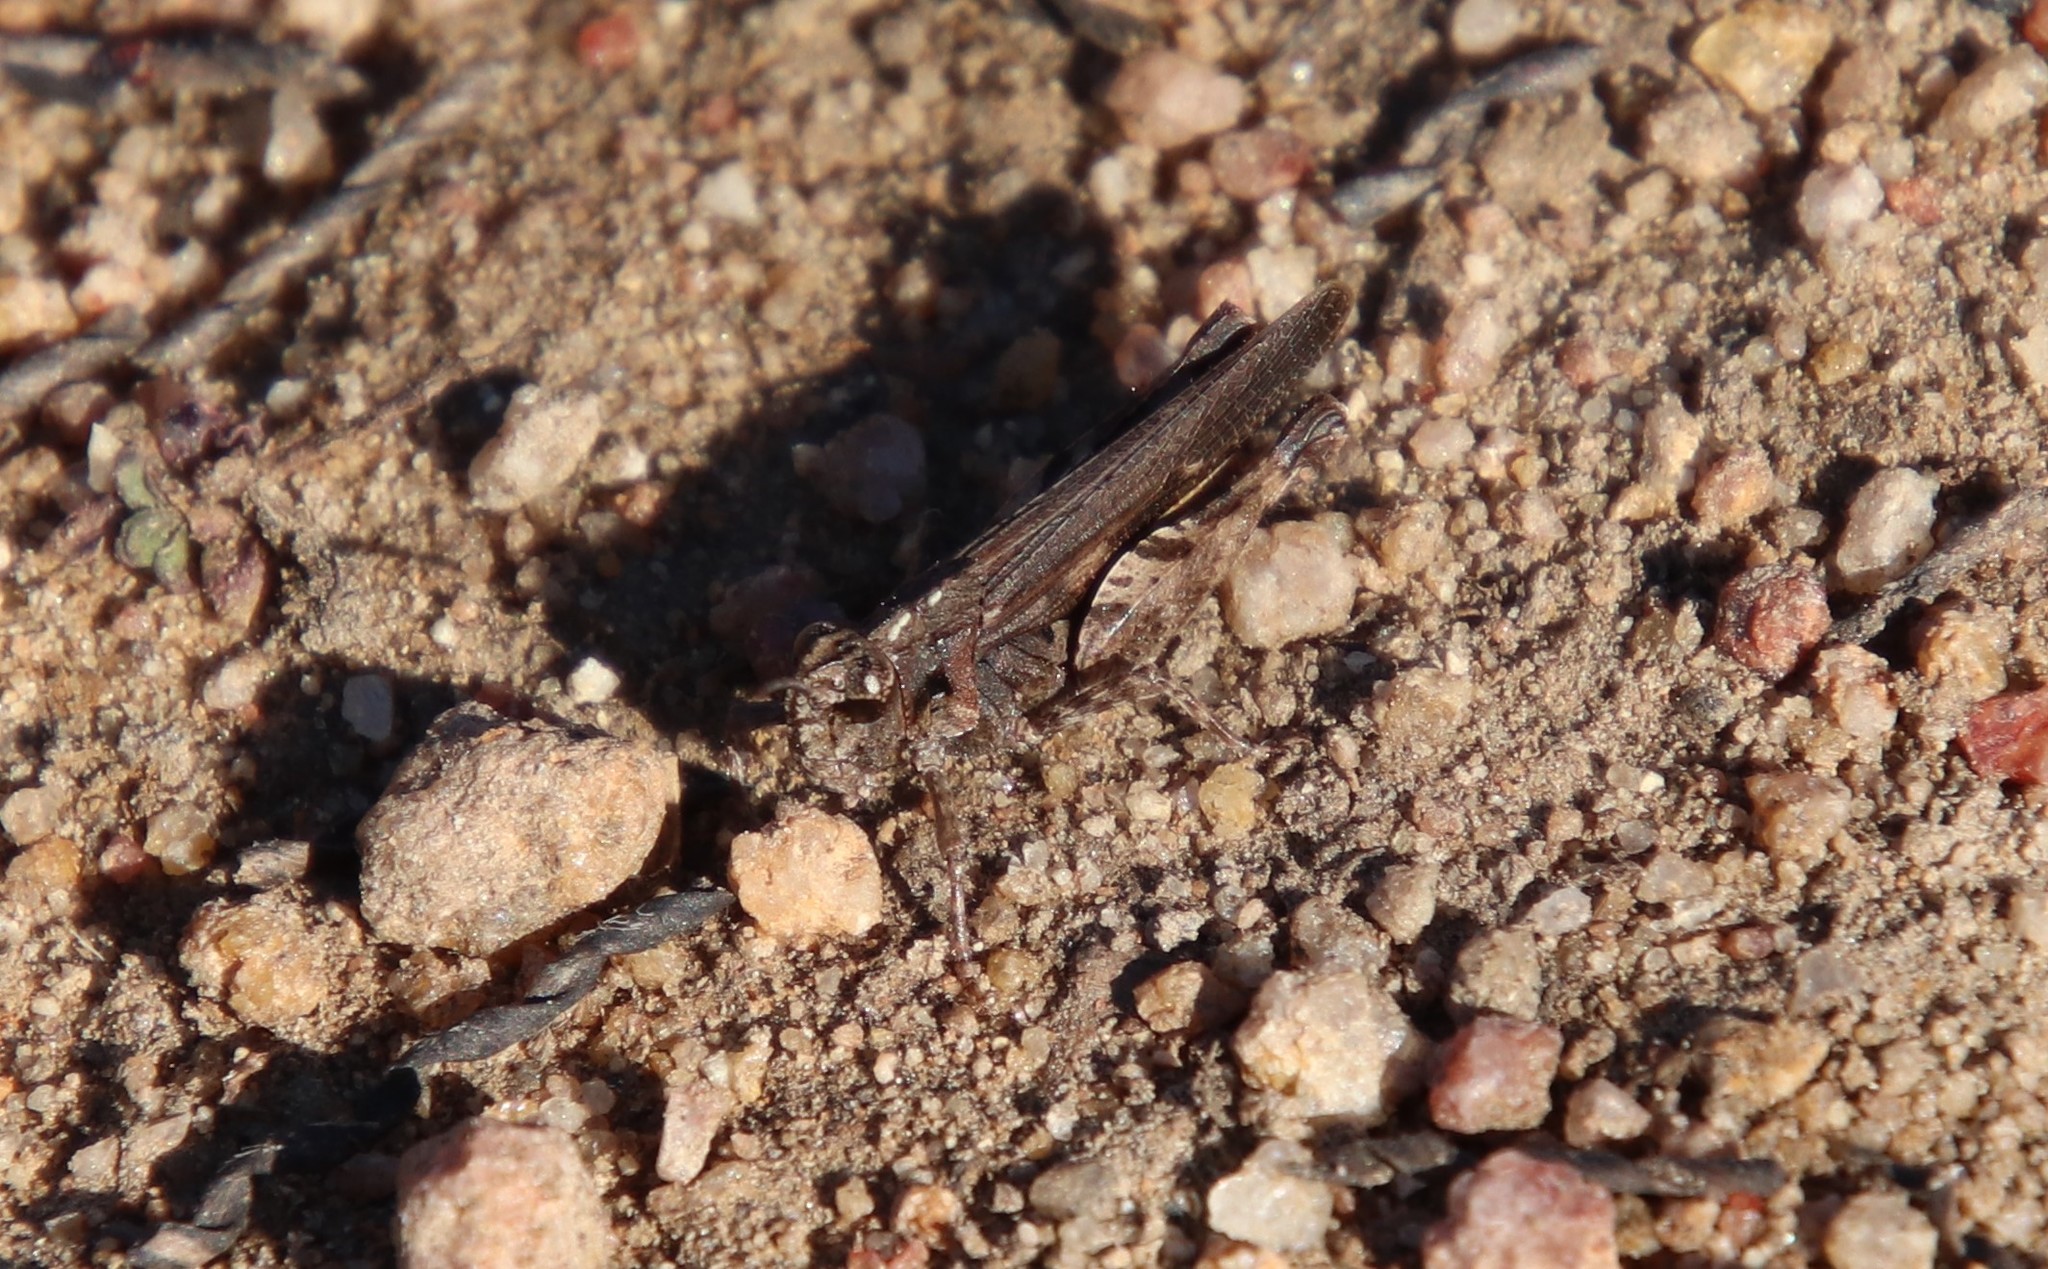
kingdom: Animalia
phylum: Arthropoda
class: Insecta
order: Orthoptera
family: Acrididae
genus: Chimarocephala
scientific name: Chimarocephala pacifica
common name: Painted meadow grasshopper
